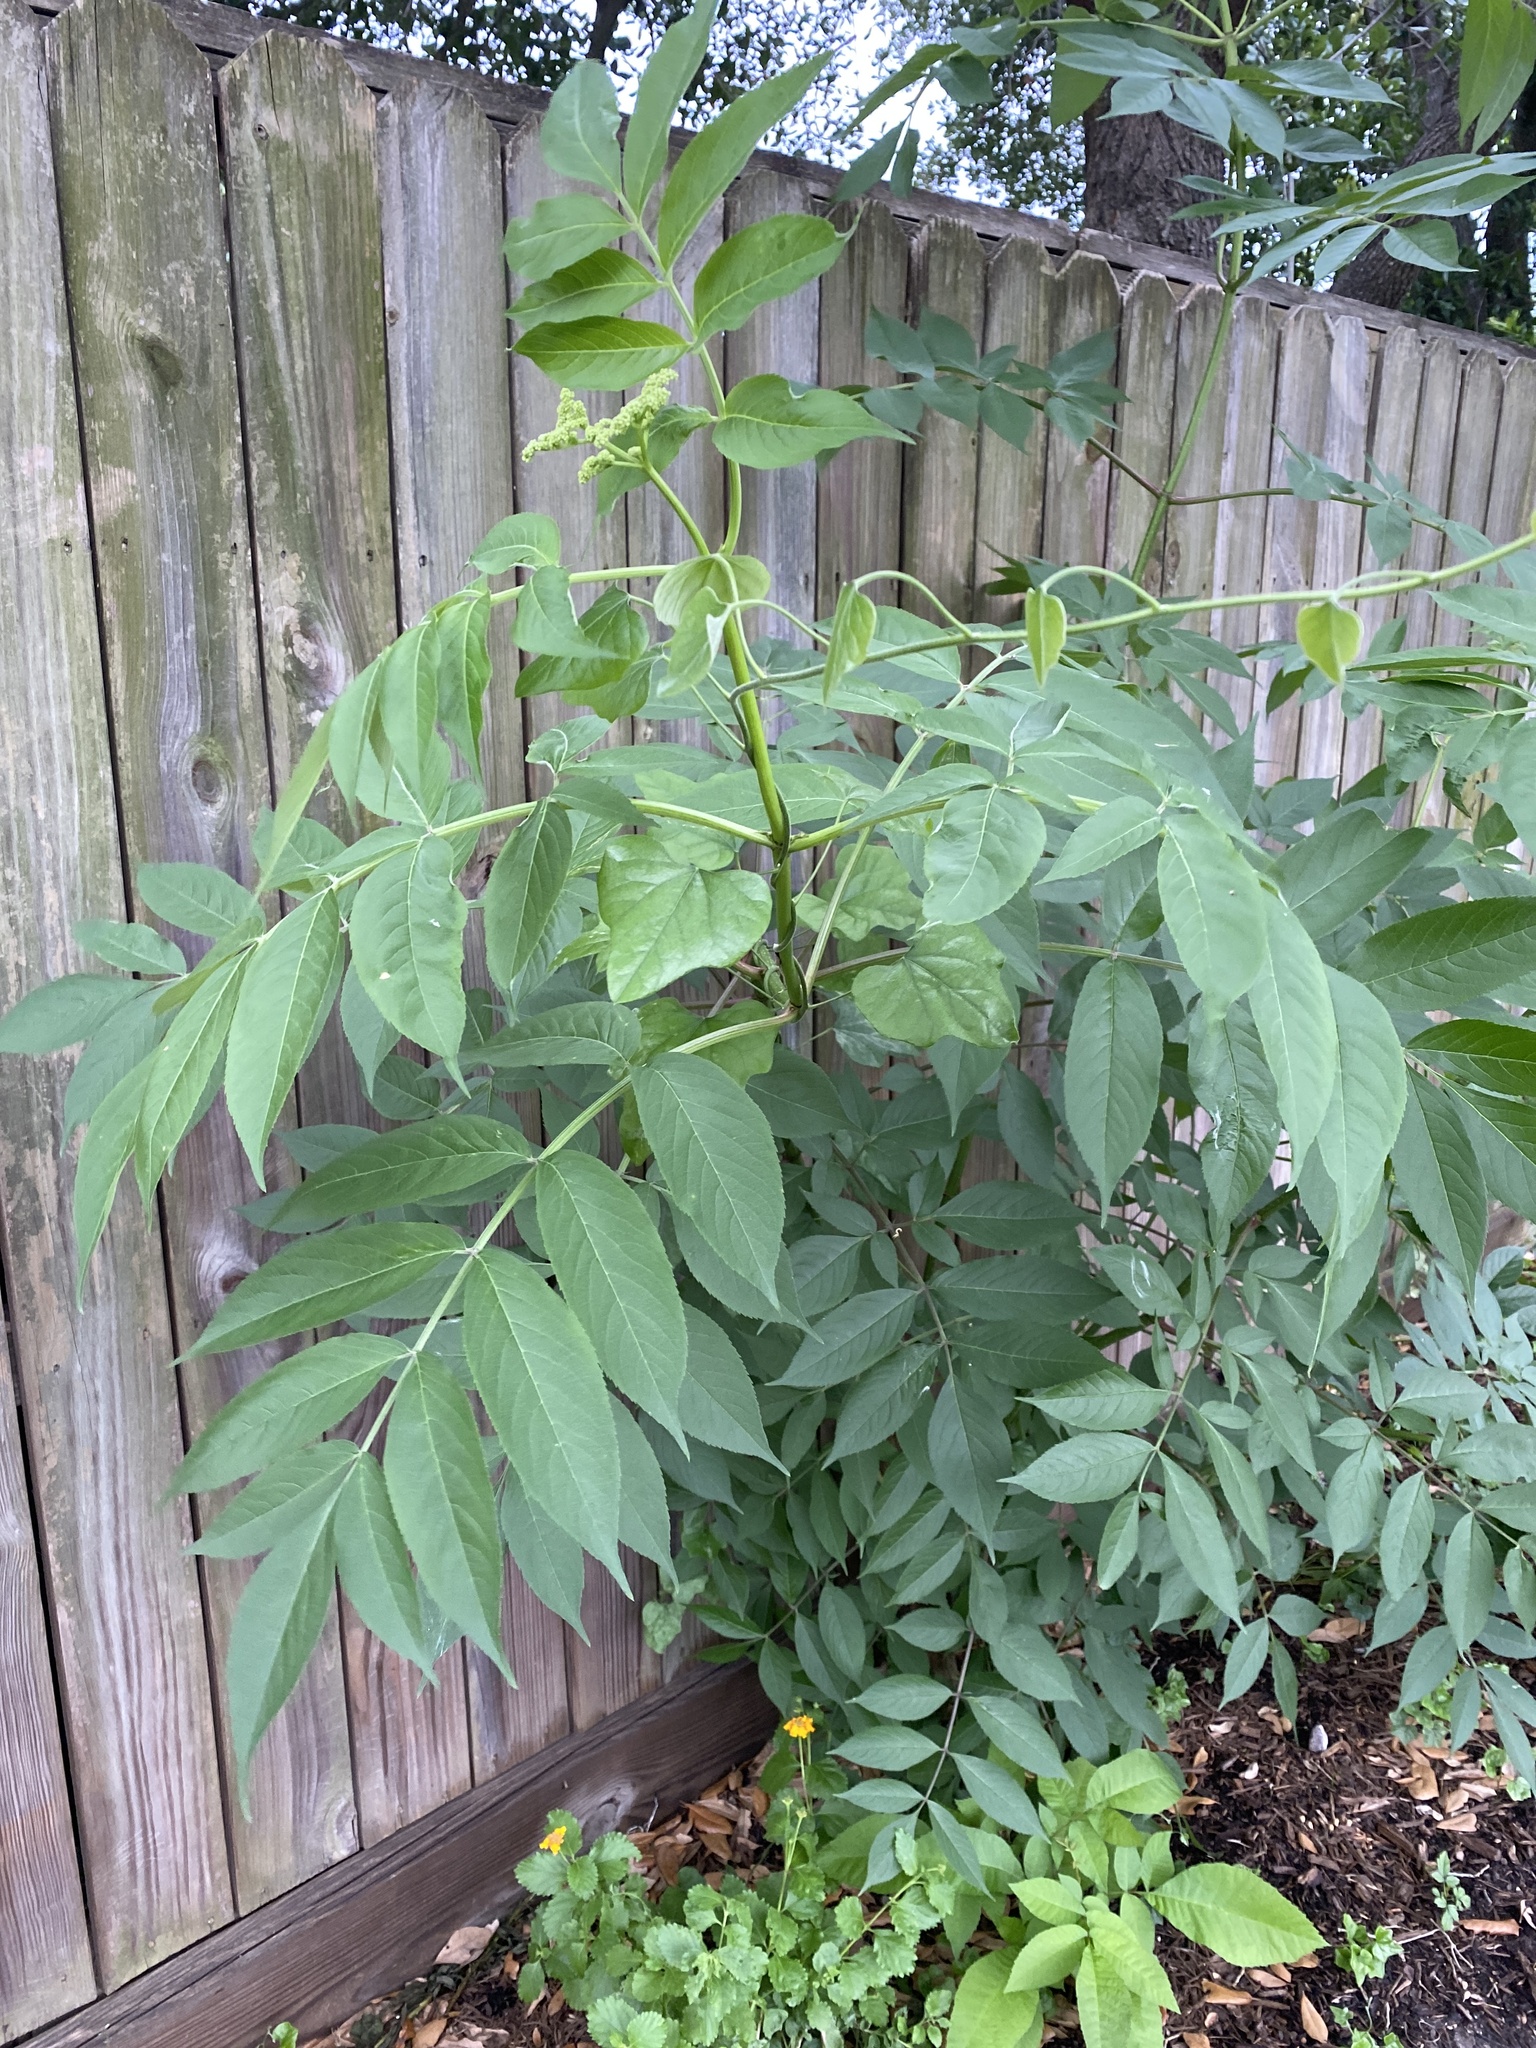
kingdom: Plantae
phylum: Tracheophyta
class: Magnoliopsida
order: Dipsacales
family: Viburnaceae
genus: Sambucus
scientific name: Sambucus canadensis
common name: American elder
